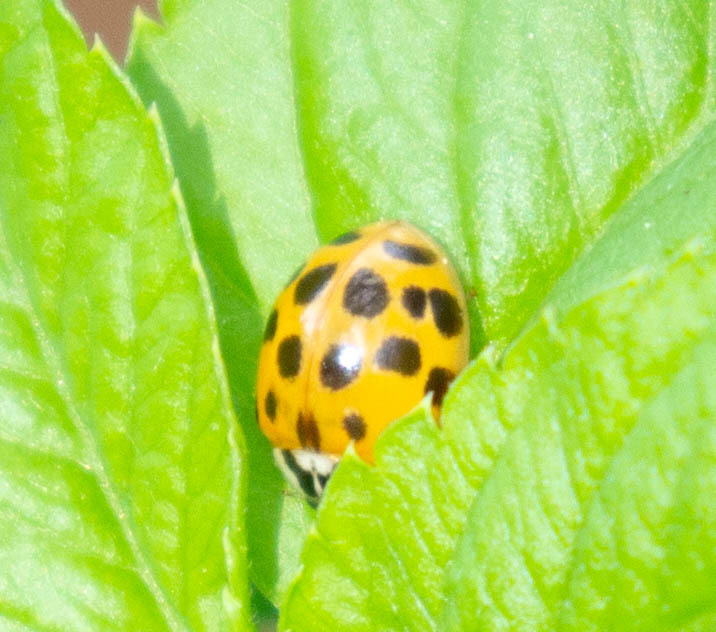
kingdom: Animalia
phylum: Arthropoda
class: Insecta
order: Coleoptera
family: Coccinellidae
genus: Harmonia
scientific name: Harmonia axyridis
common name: Harlequin ladybird
